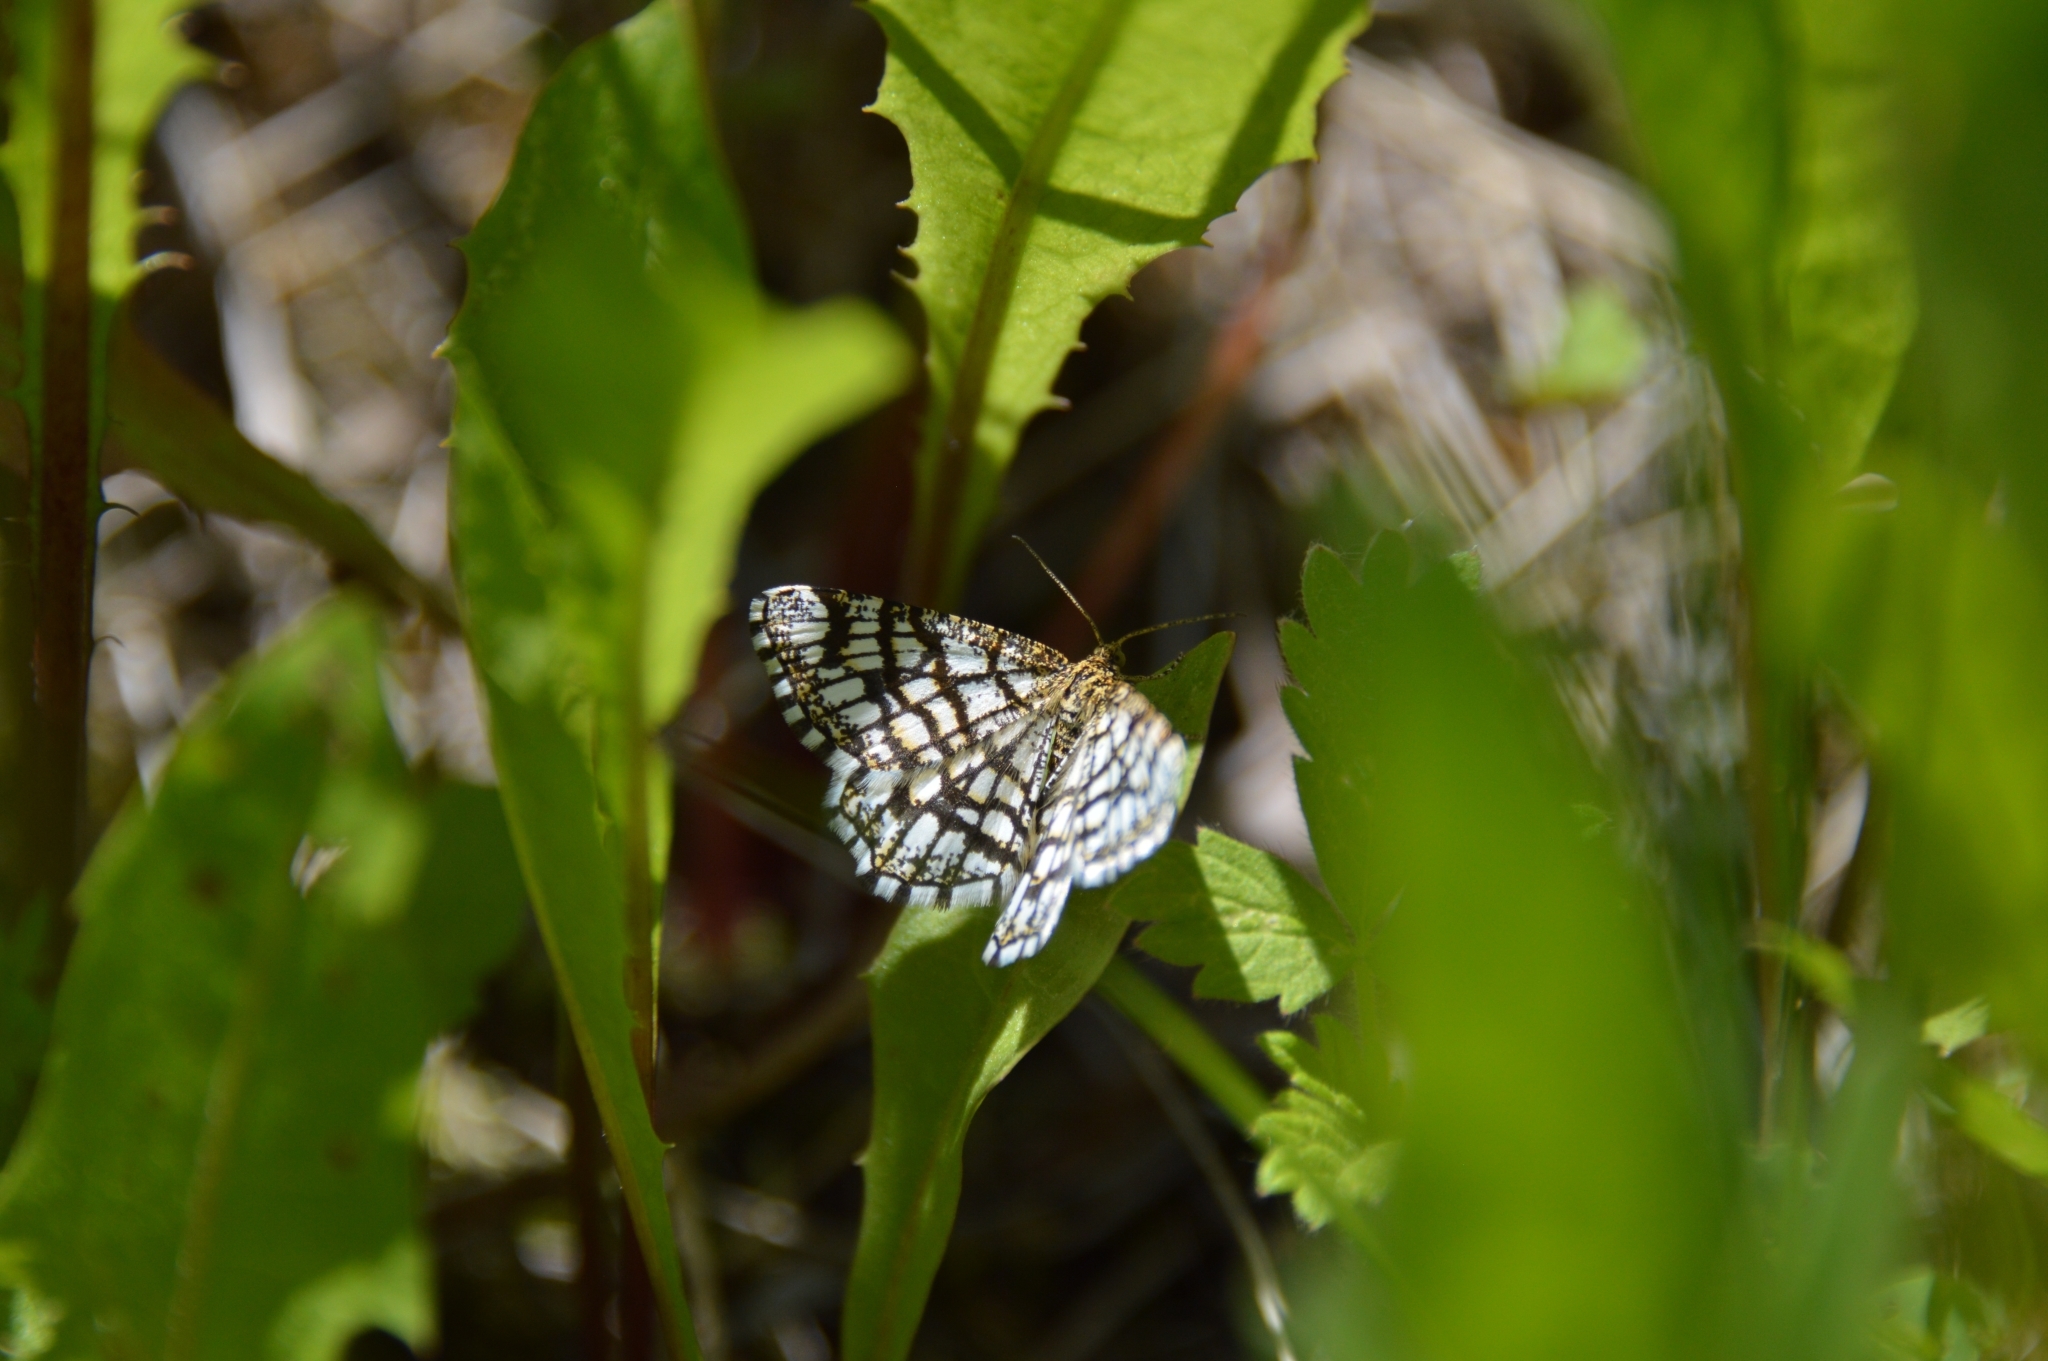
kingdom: Animalia
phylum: Arthropoda
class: Insecta
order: Lepidoptera
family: Geometridae
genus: Chiasmia
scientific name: Chiasmia clathrata
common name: Latticed heath
